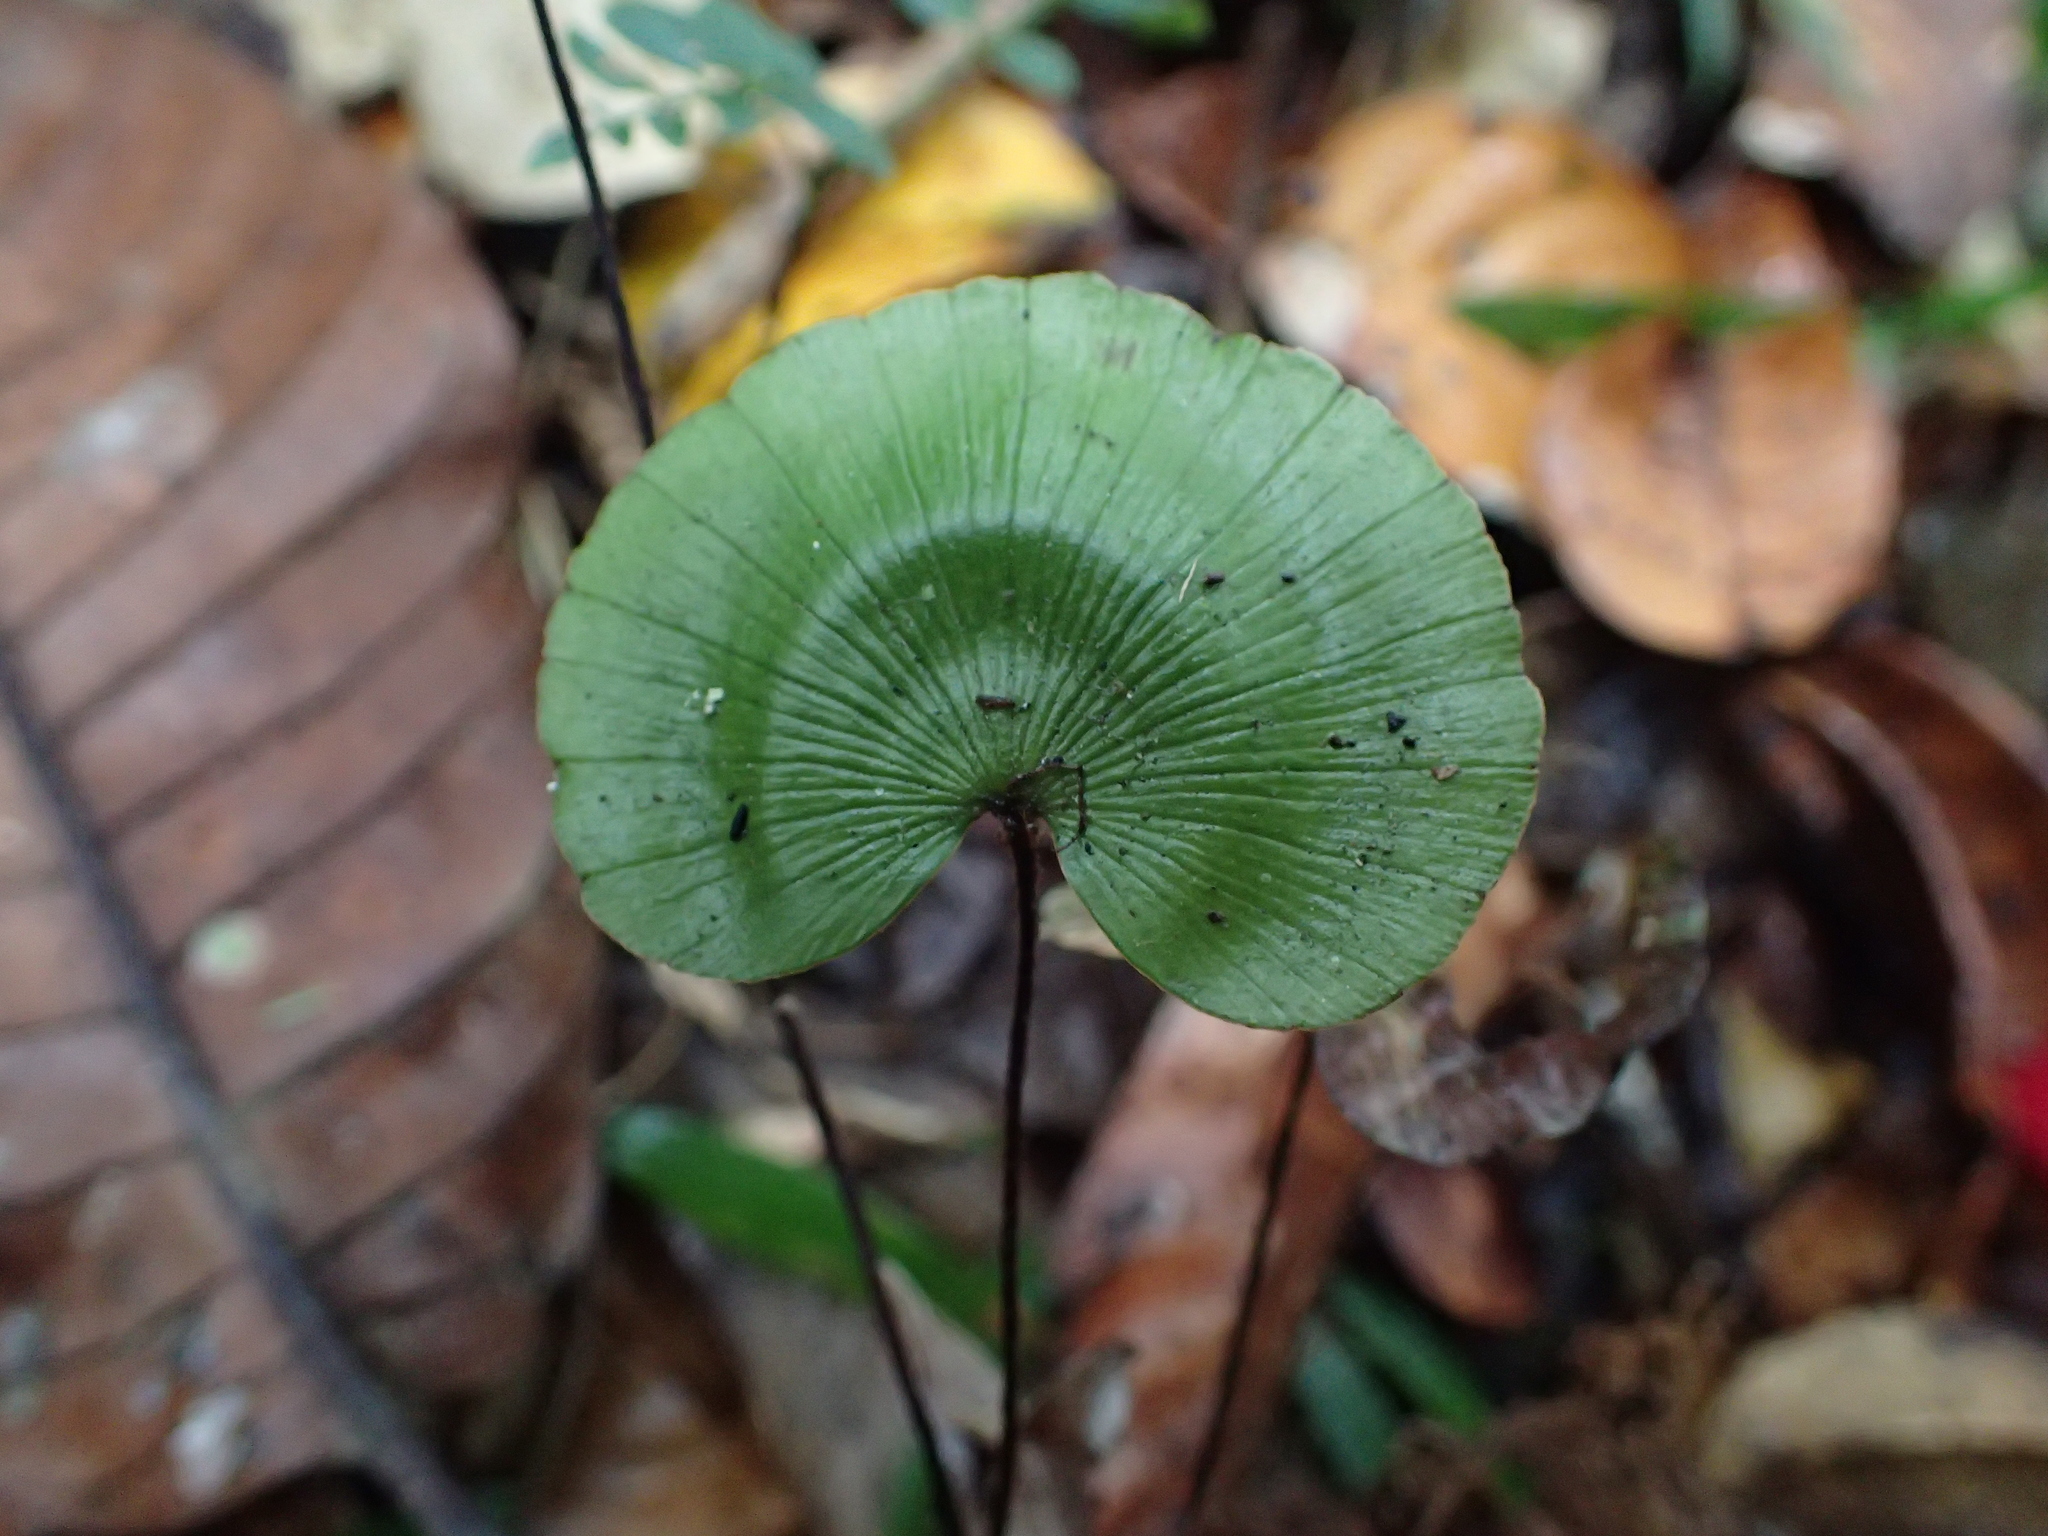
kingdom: Plantae
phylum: Tracheophyta
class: Polypodiopsida
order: Polypodiales
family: Pteridaceae
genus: Adiantum
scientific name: Adiantum reniforme
